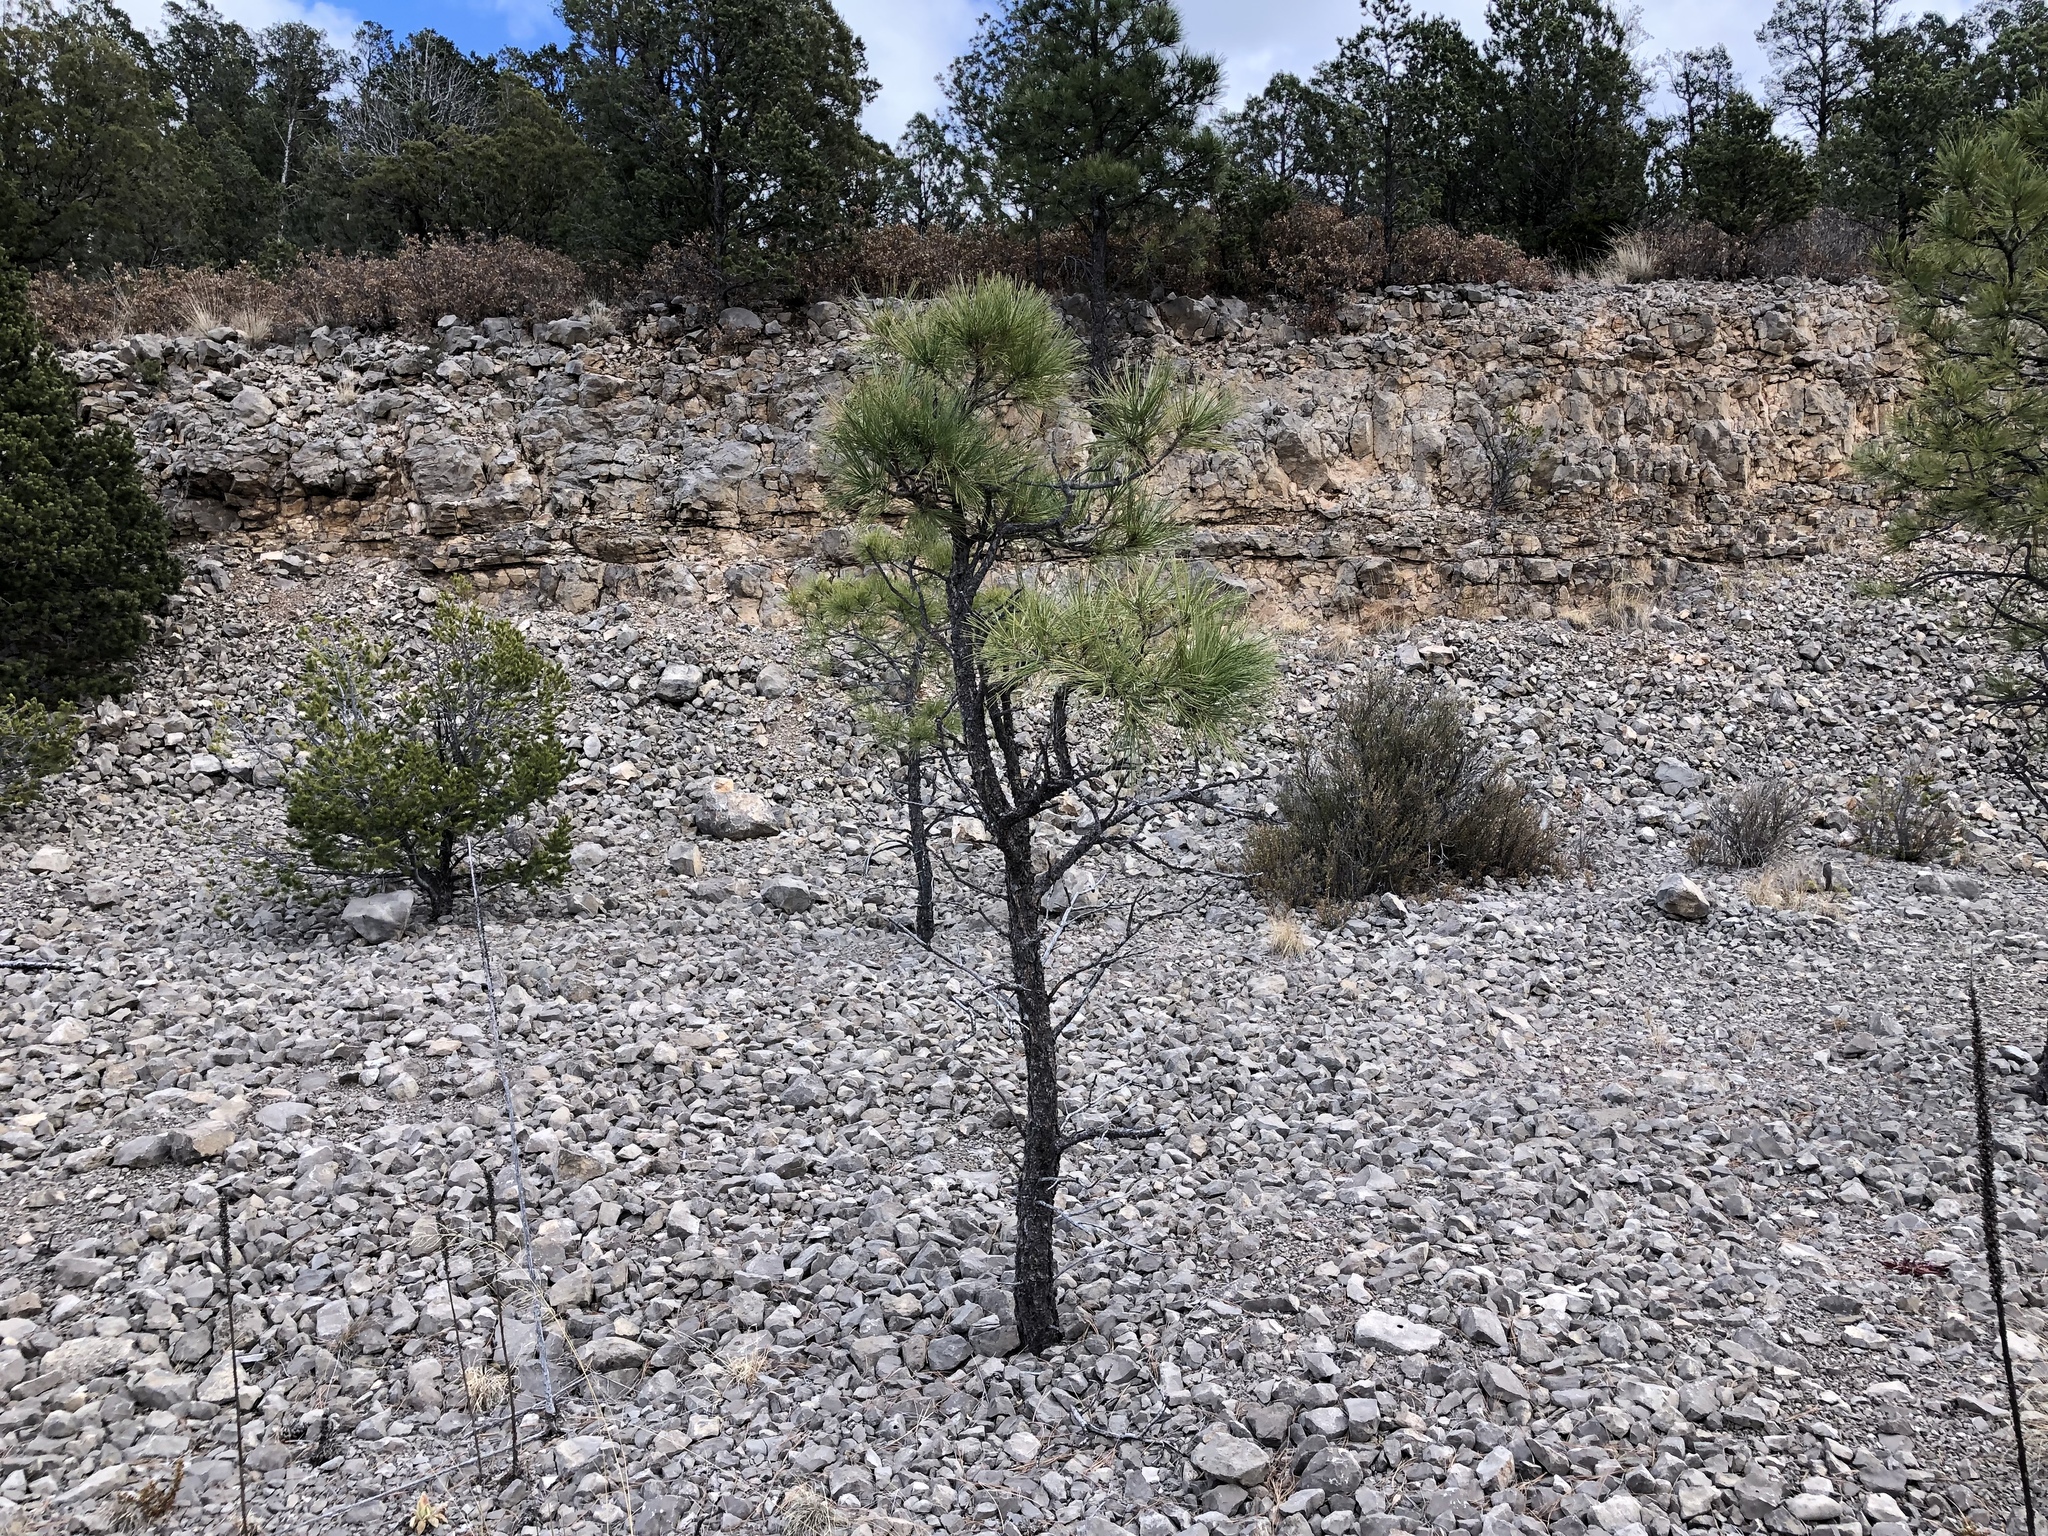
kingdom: Plantae
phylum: Tracheophyta
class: Pinopsida
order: Pinales
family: Pinaceae
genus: Pinus
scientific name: Pinus ponderosa
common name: Western yellow-pine
